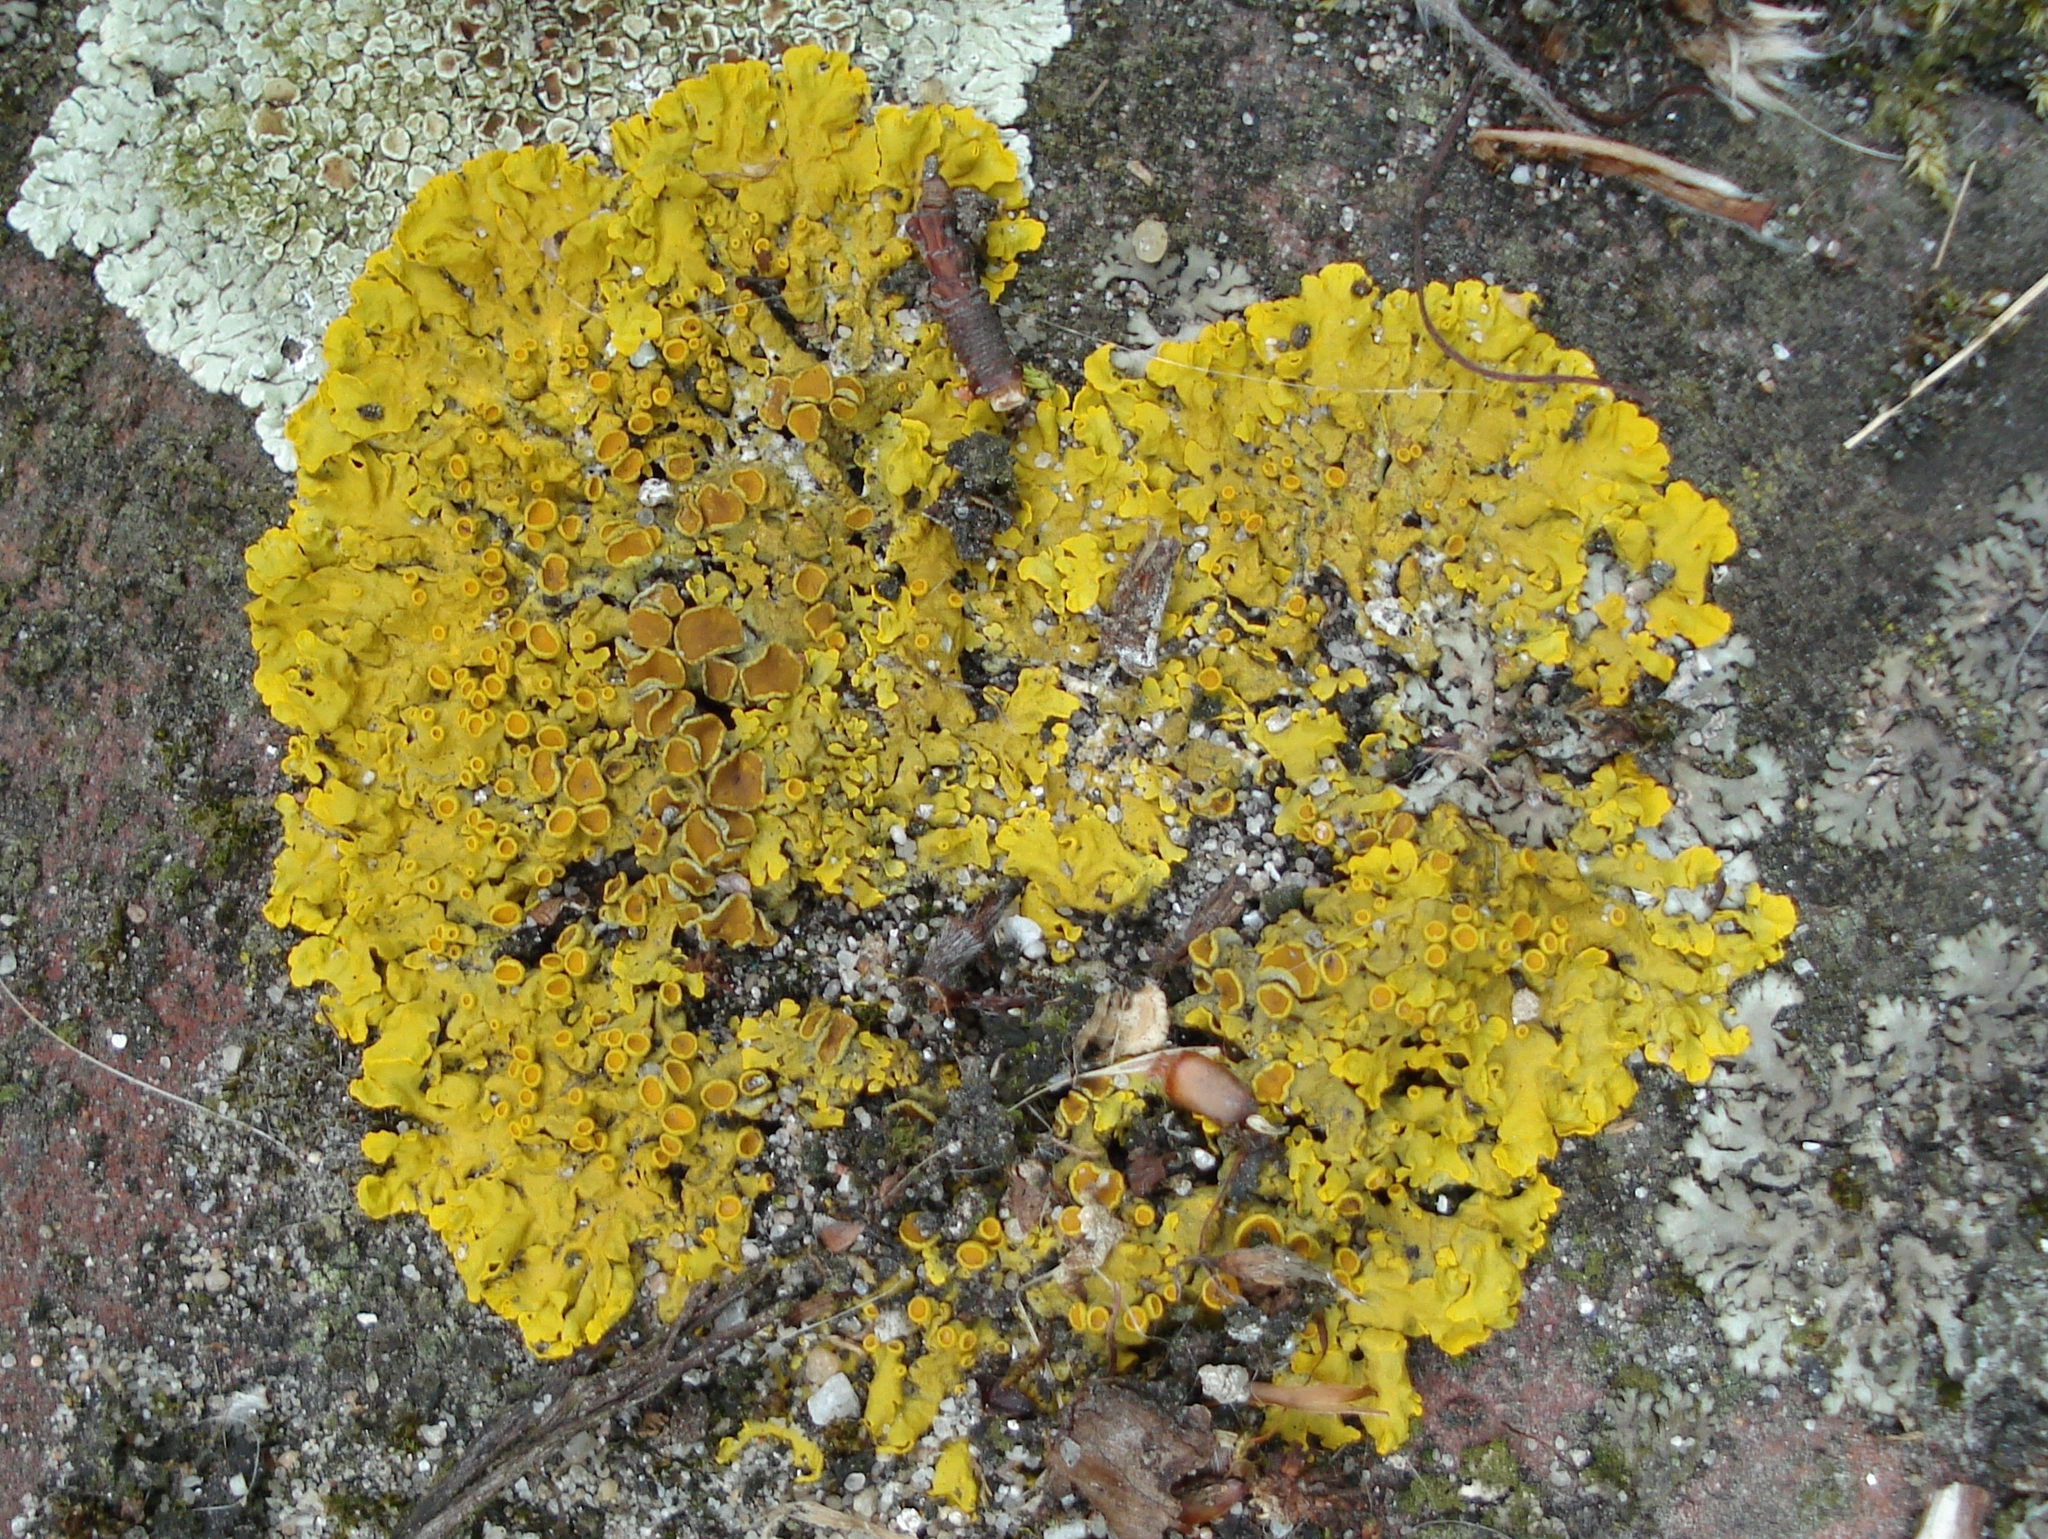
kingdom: Fungi
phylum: Ascomycota
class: Lecanoromycetes
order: Teloschistales
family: Teloschistaceae
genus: Xanthoria
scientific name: Xanthoria parietina
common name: Common orange lichen
